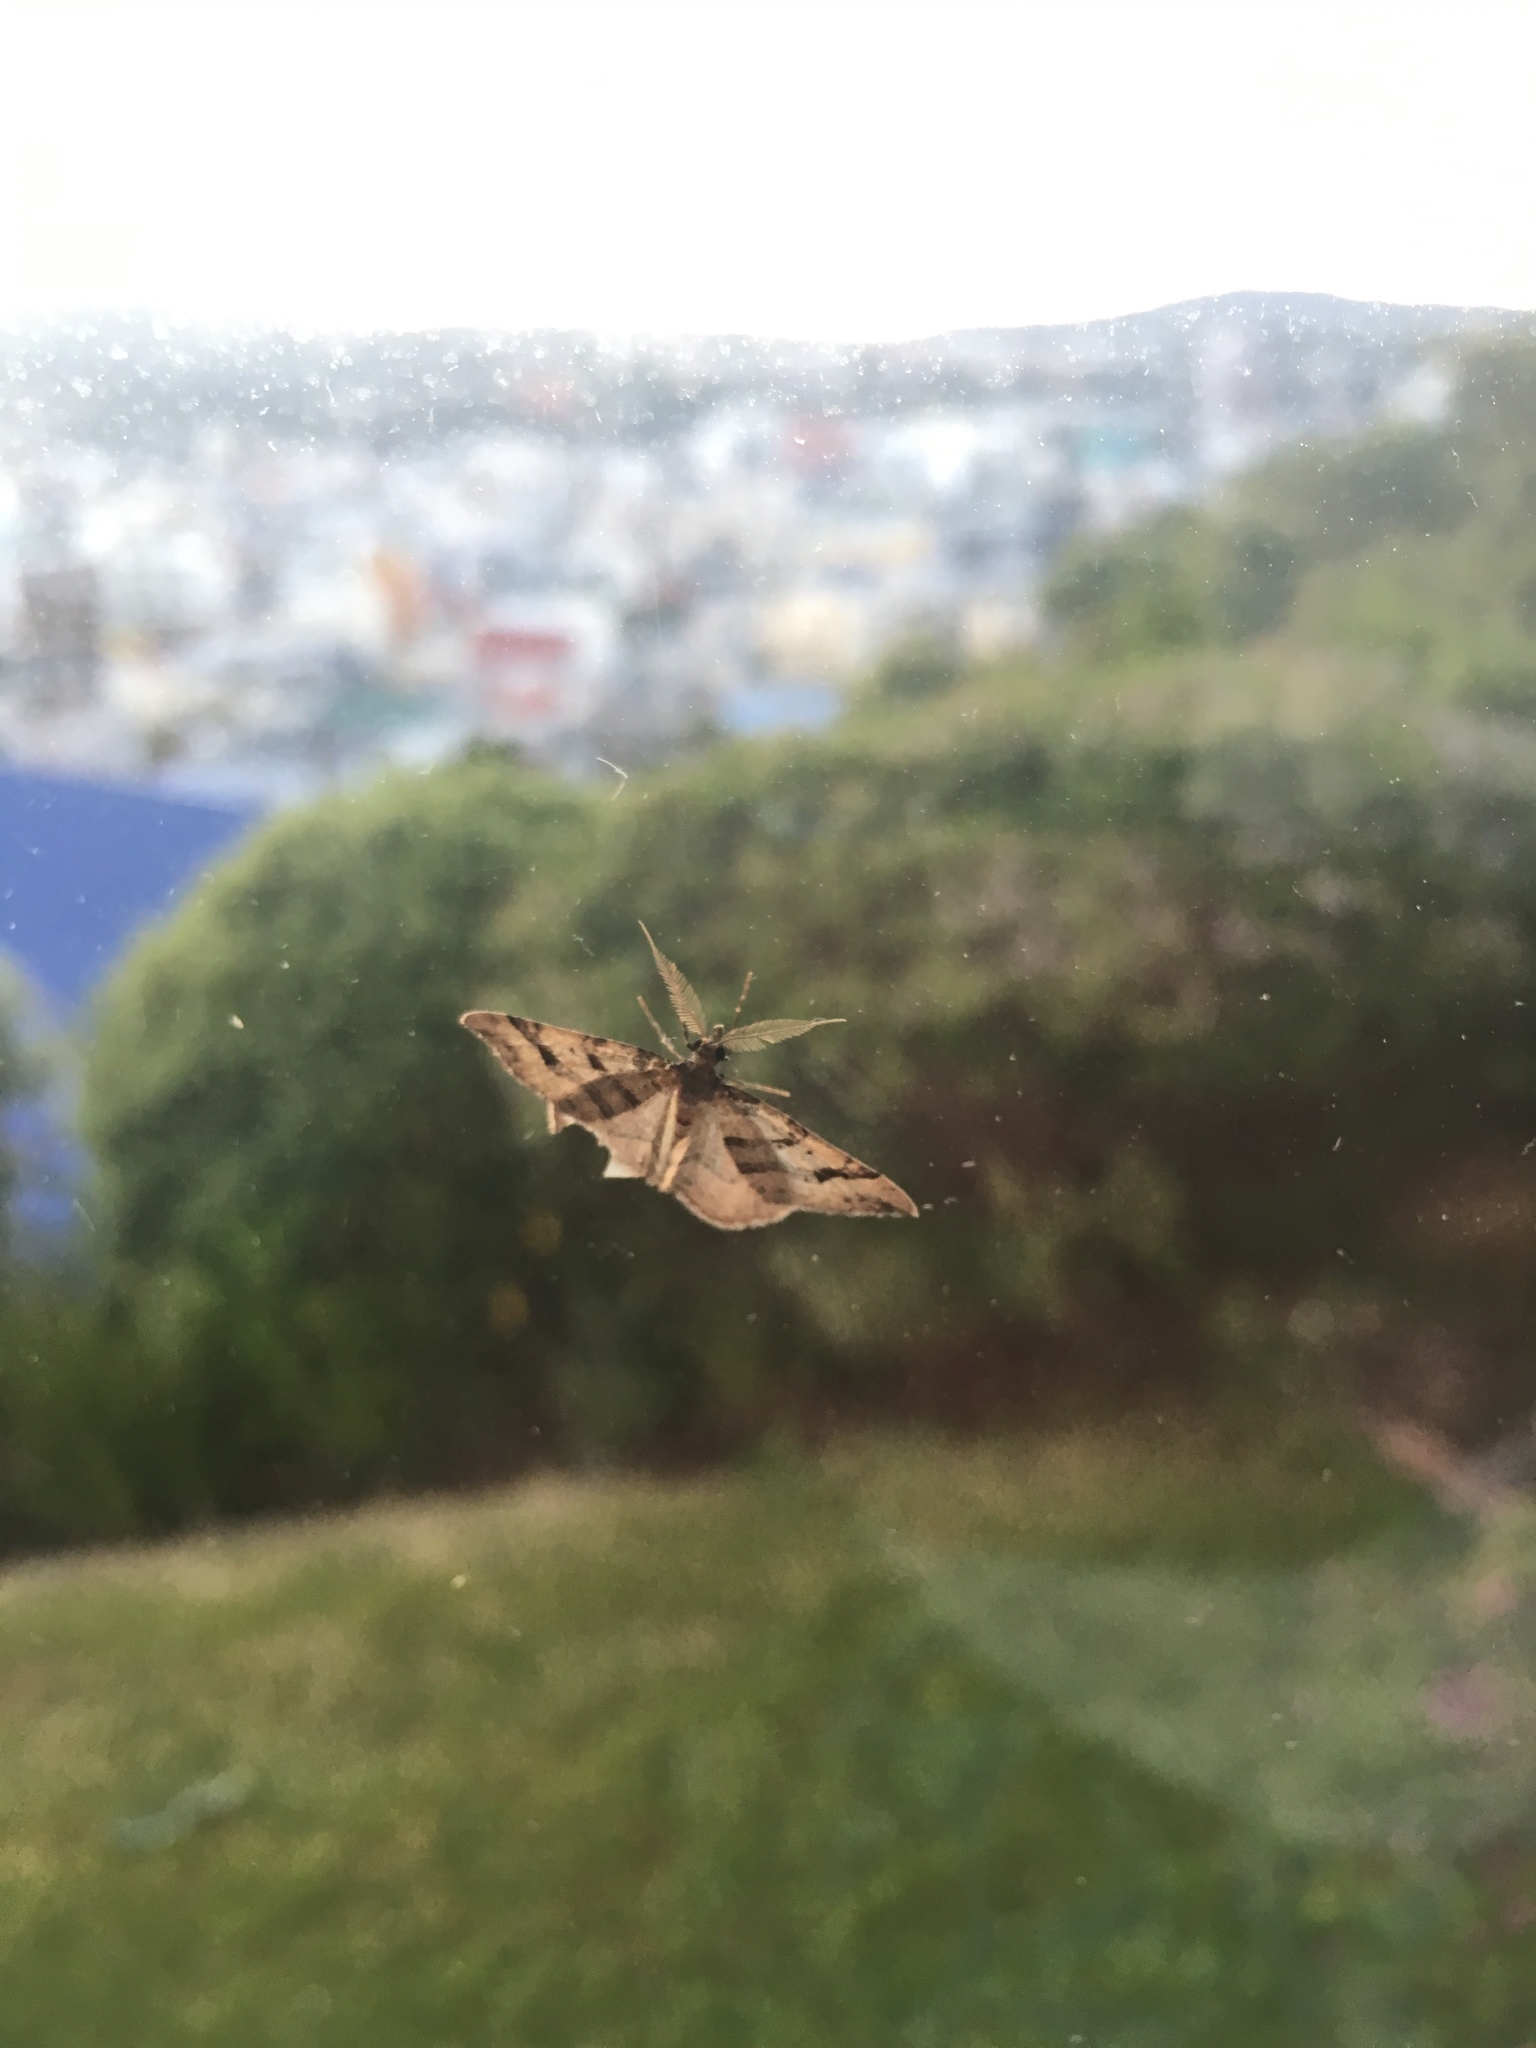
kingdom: Animalia
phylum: Arthropoda
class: Insecta
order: Lepidoptera
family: Geometridae
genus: Epyaxa
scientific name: Epyaxa rosearia
